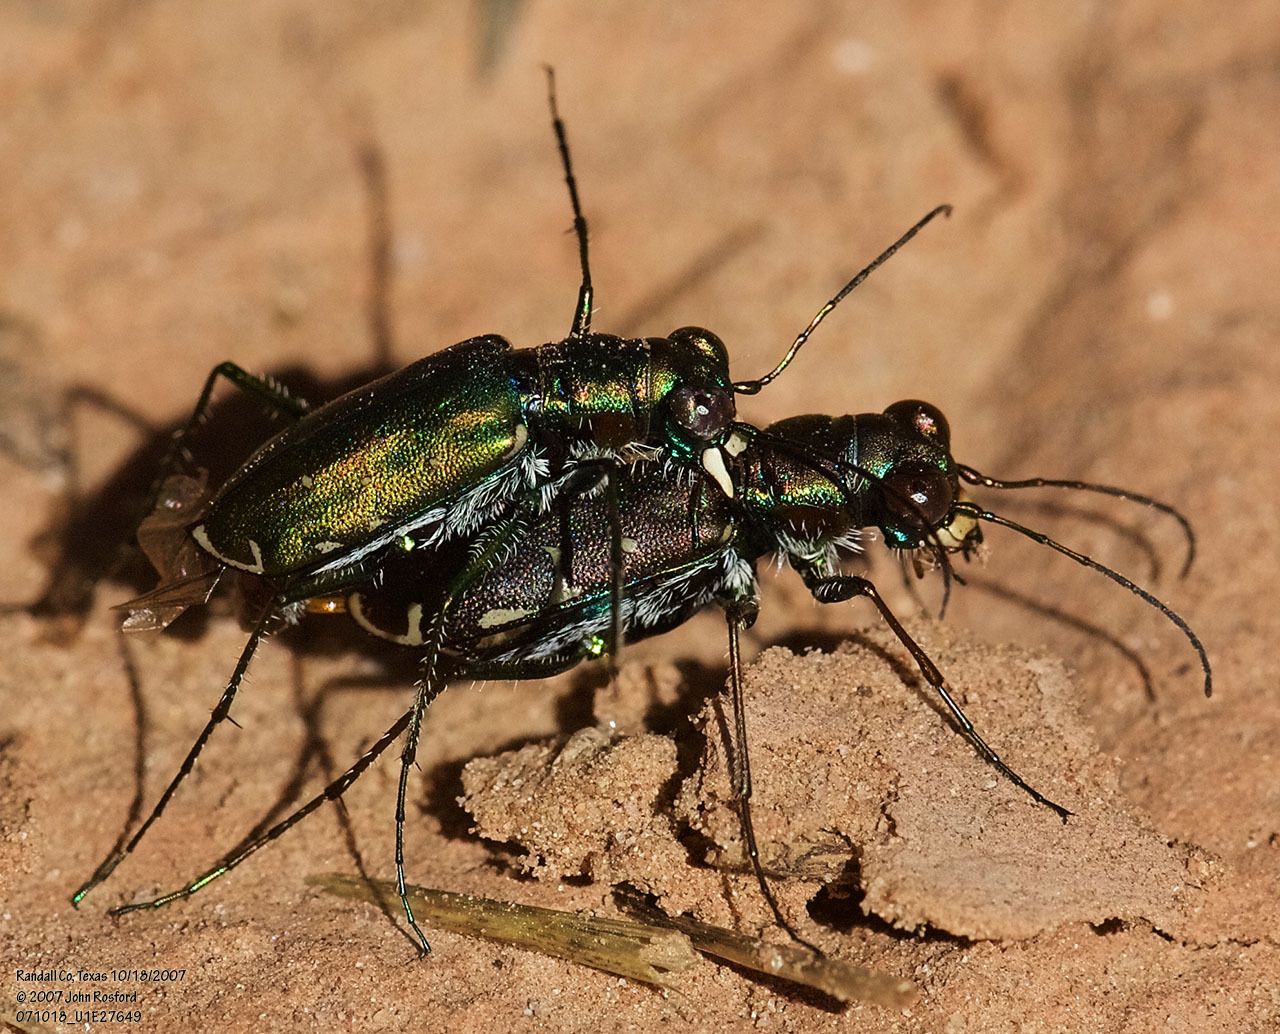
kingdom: Animalia
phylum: Arthropoda
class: Insecta
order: Coleoptera
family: Carabidae
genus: Cicindela
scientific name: Cicindela punctulata
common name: Punctured tiger beetle
